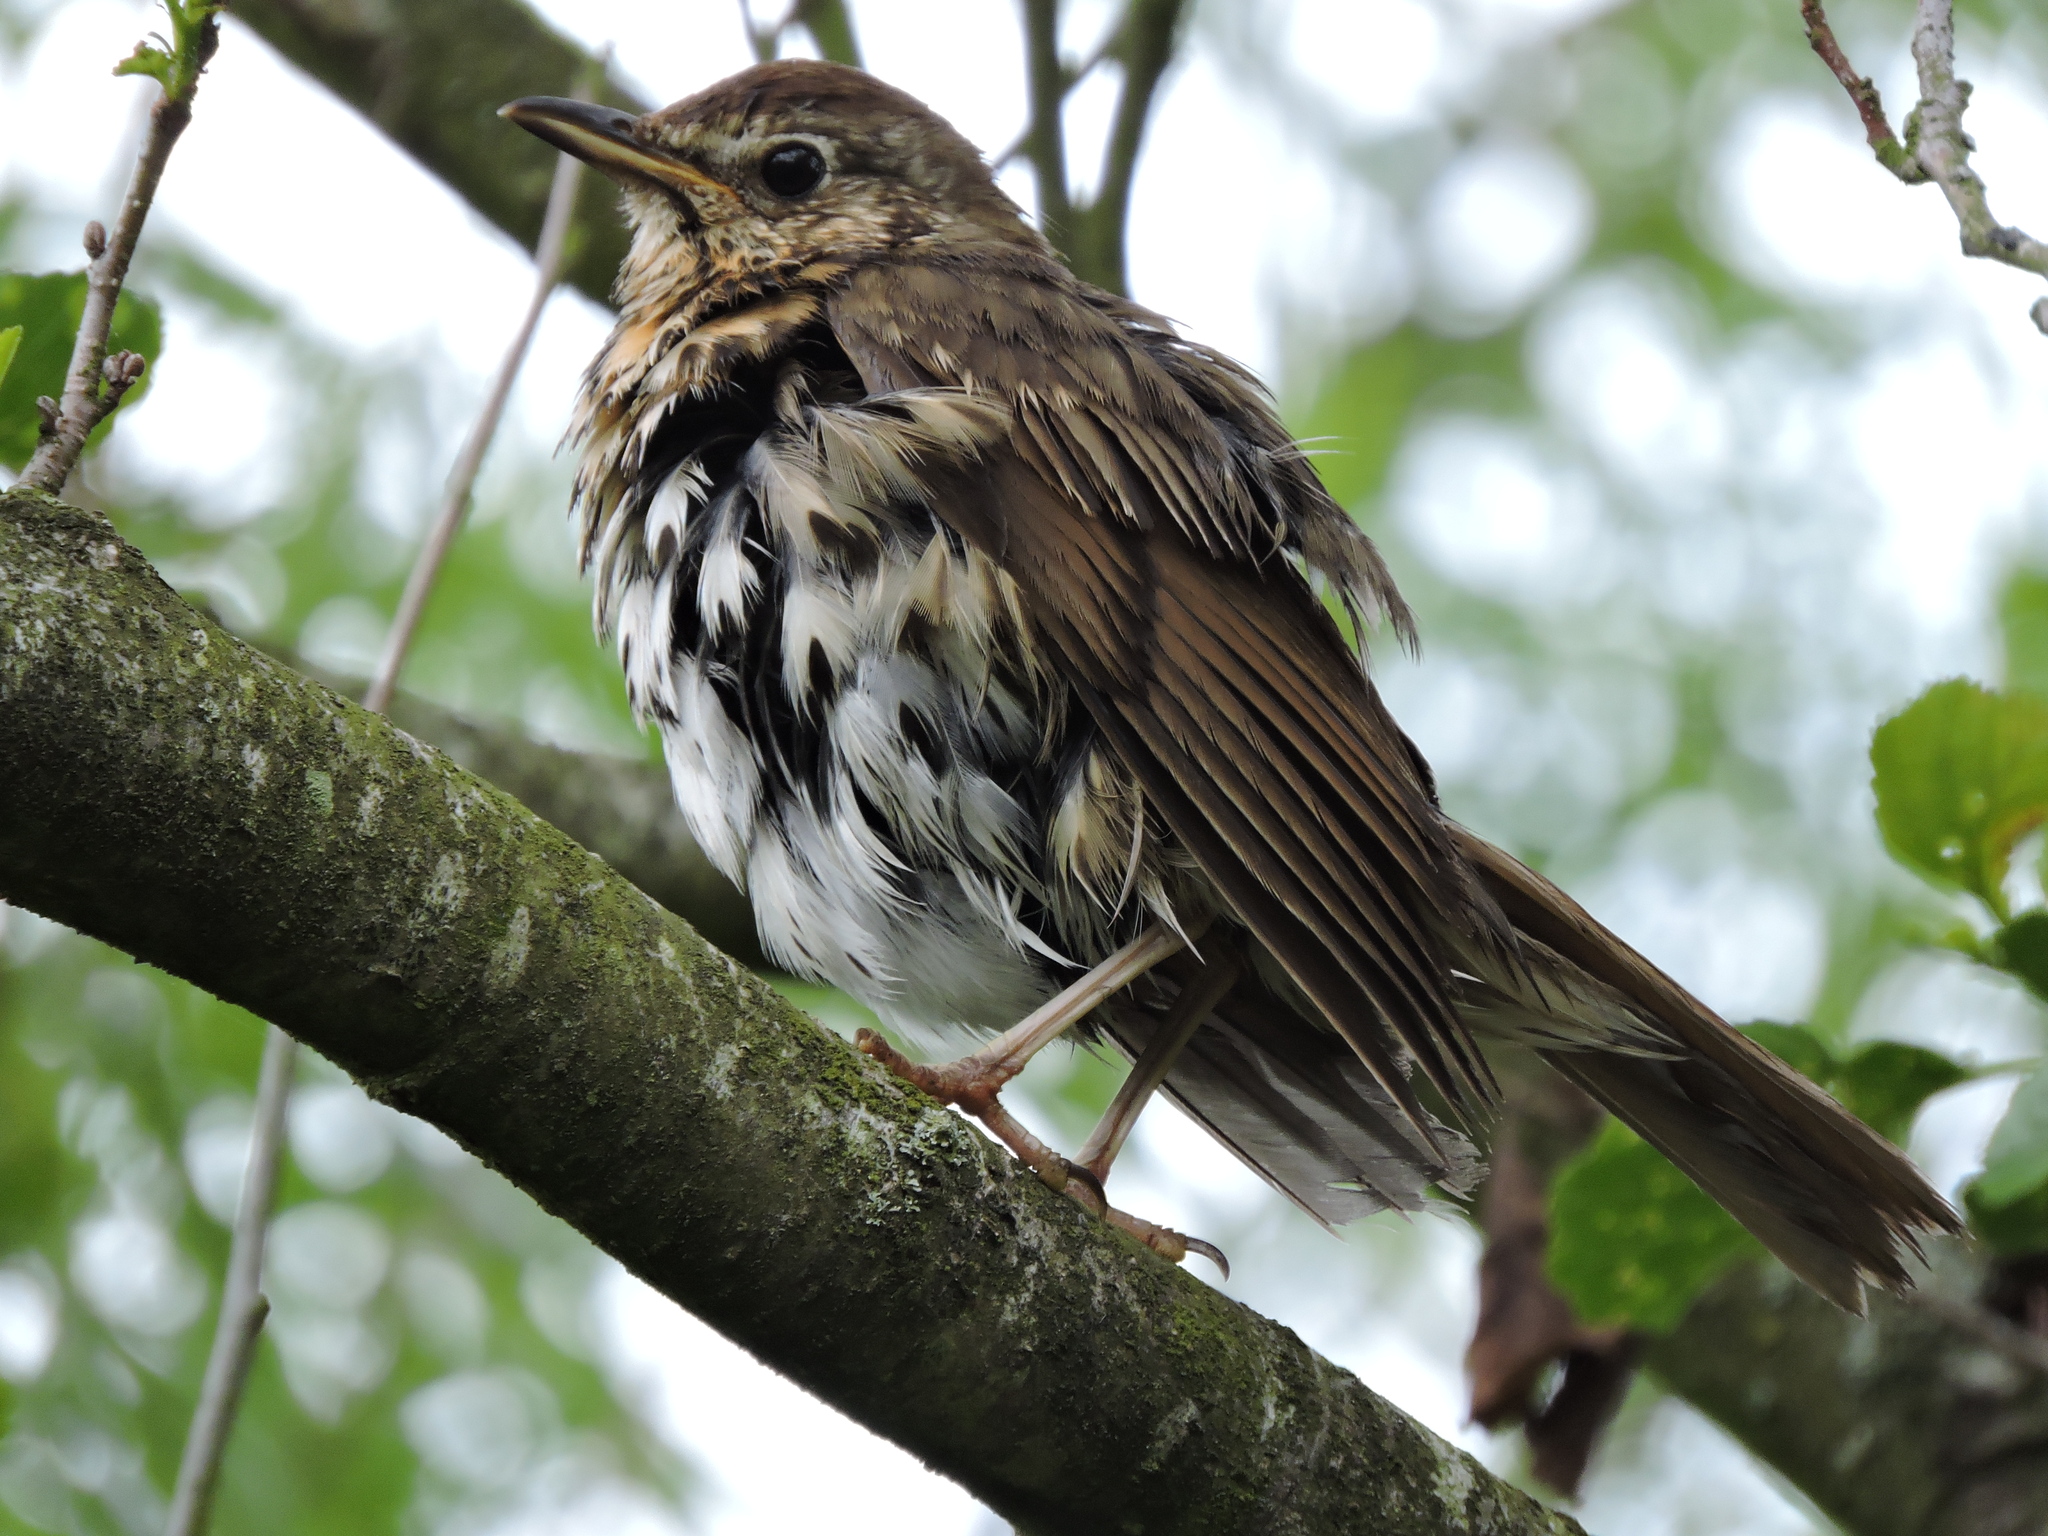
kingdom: Animalia
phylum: Chordata
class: Aves
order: Passeriformes
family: Turdidae
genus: Turdus
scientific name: Turdus philomelos
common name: Song thrush
